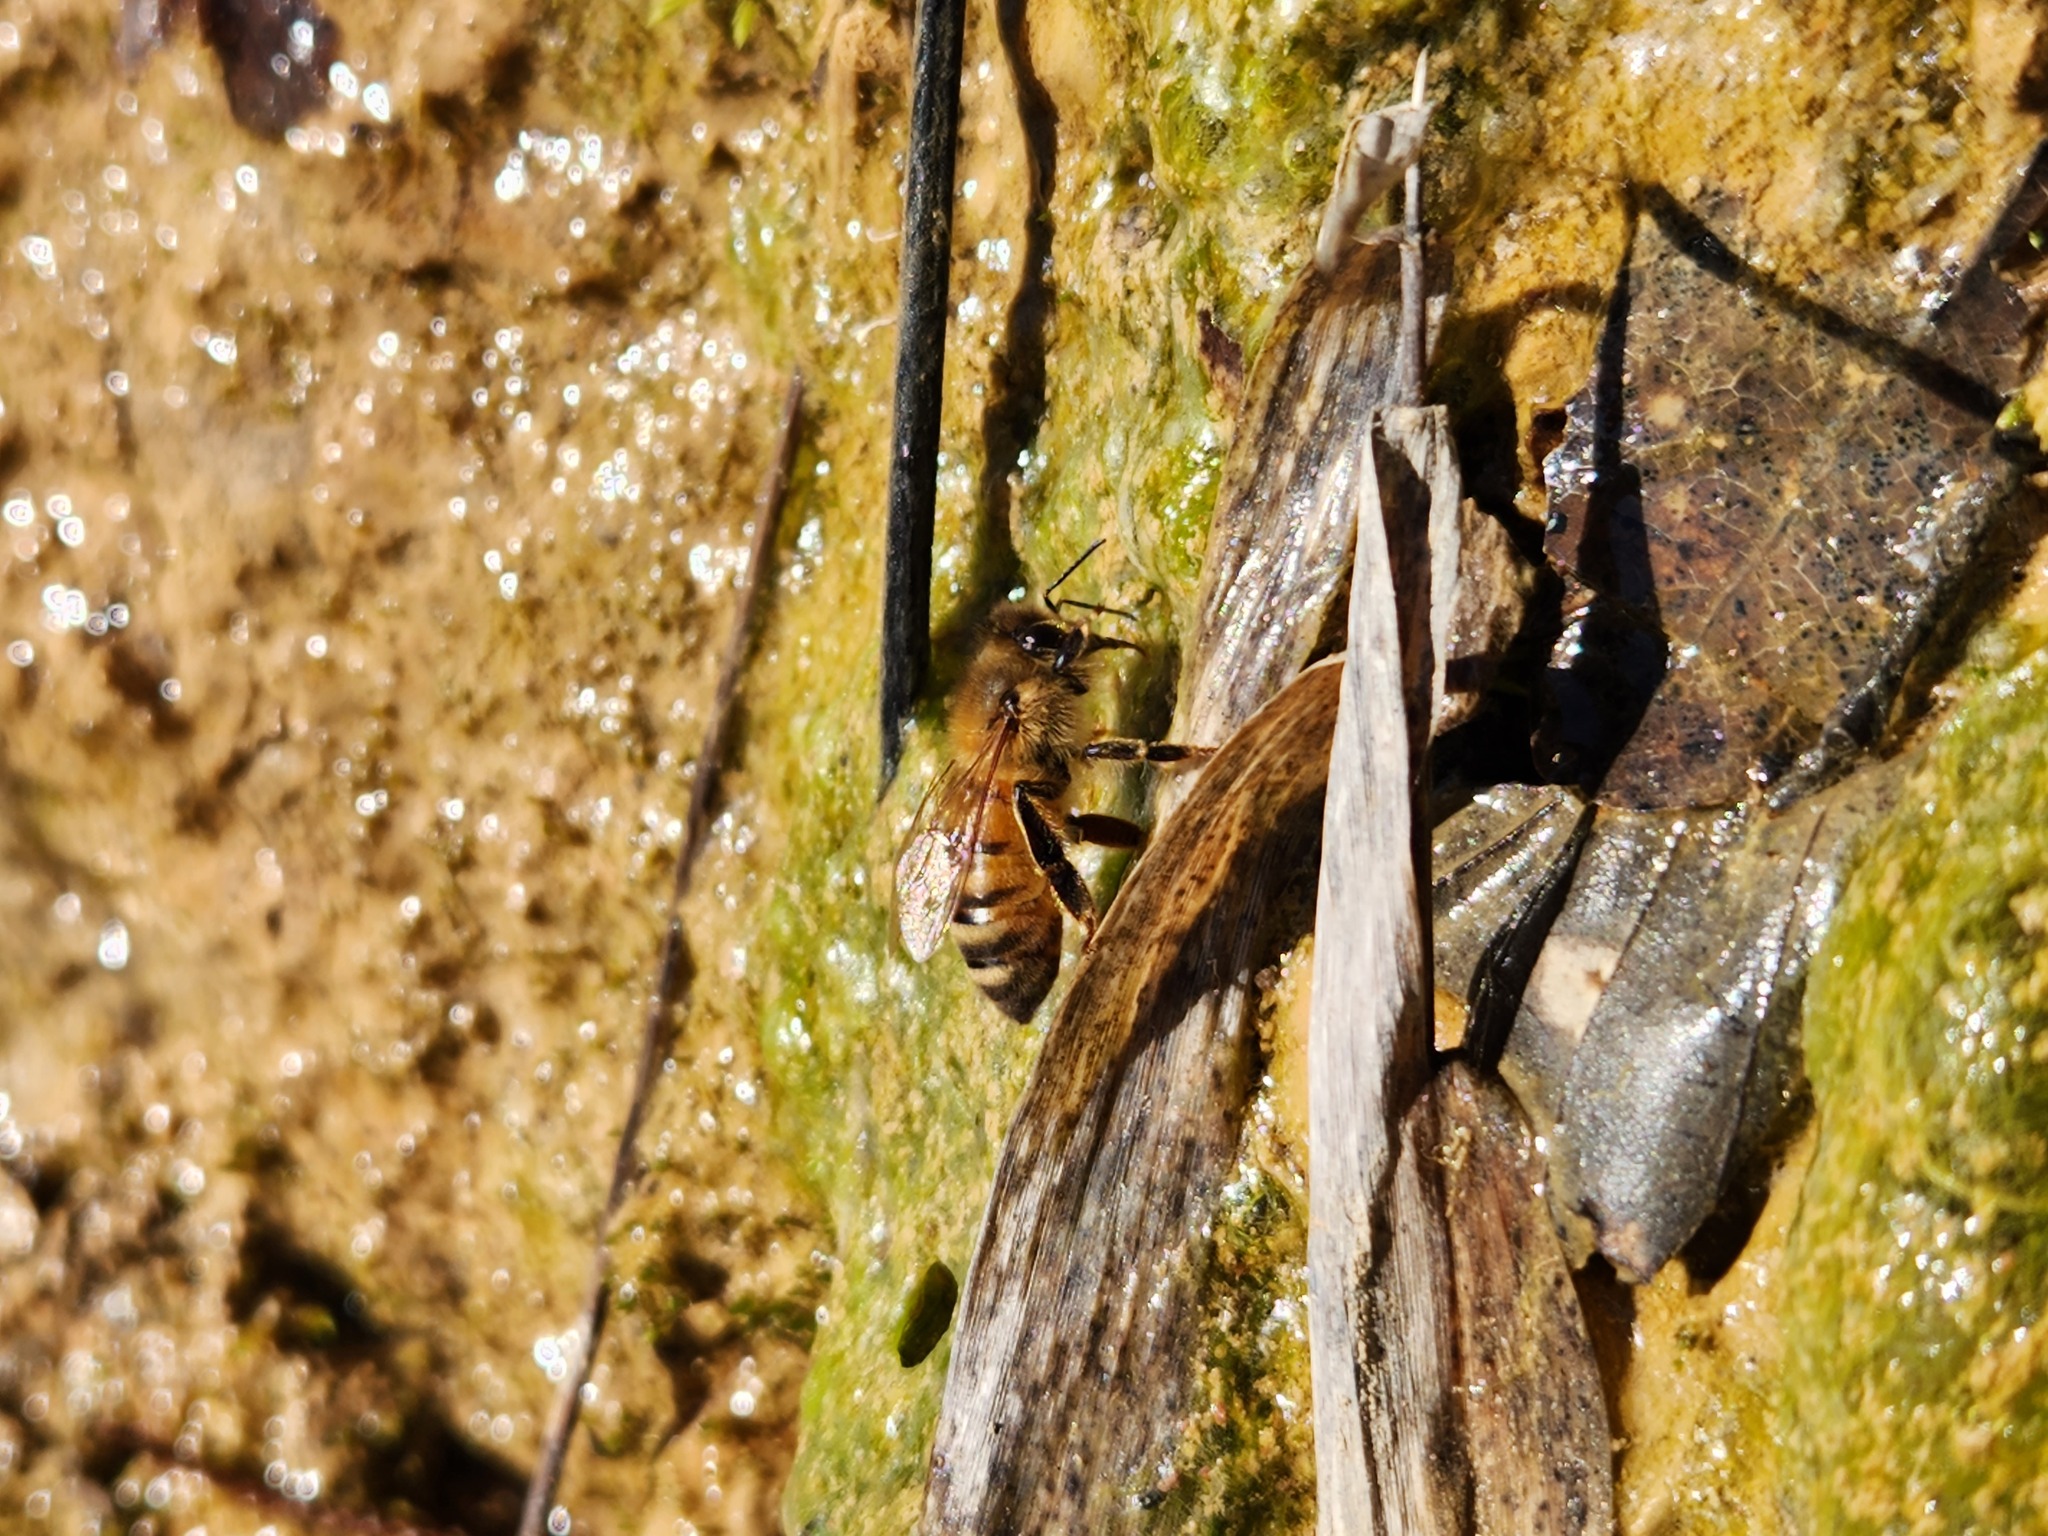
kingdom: Animalia
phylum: Arthropoda
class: Insecta
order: Hymenoptera
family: Apidae
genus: Apis
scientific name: Apis mellifera
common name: Honey bee
